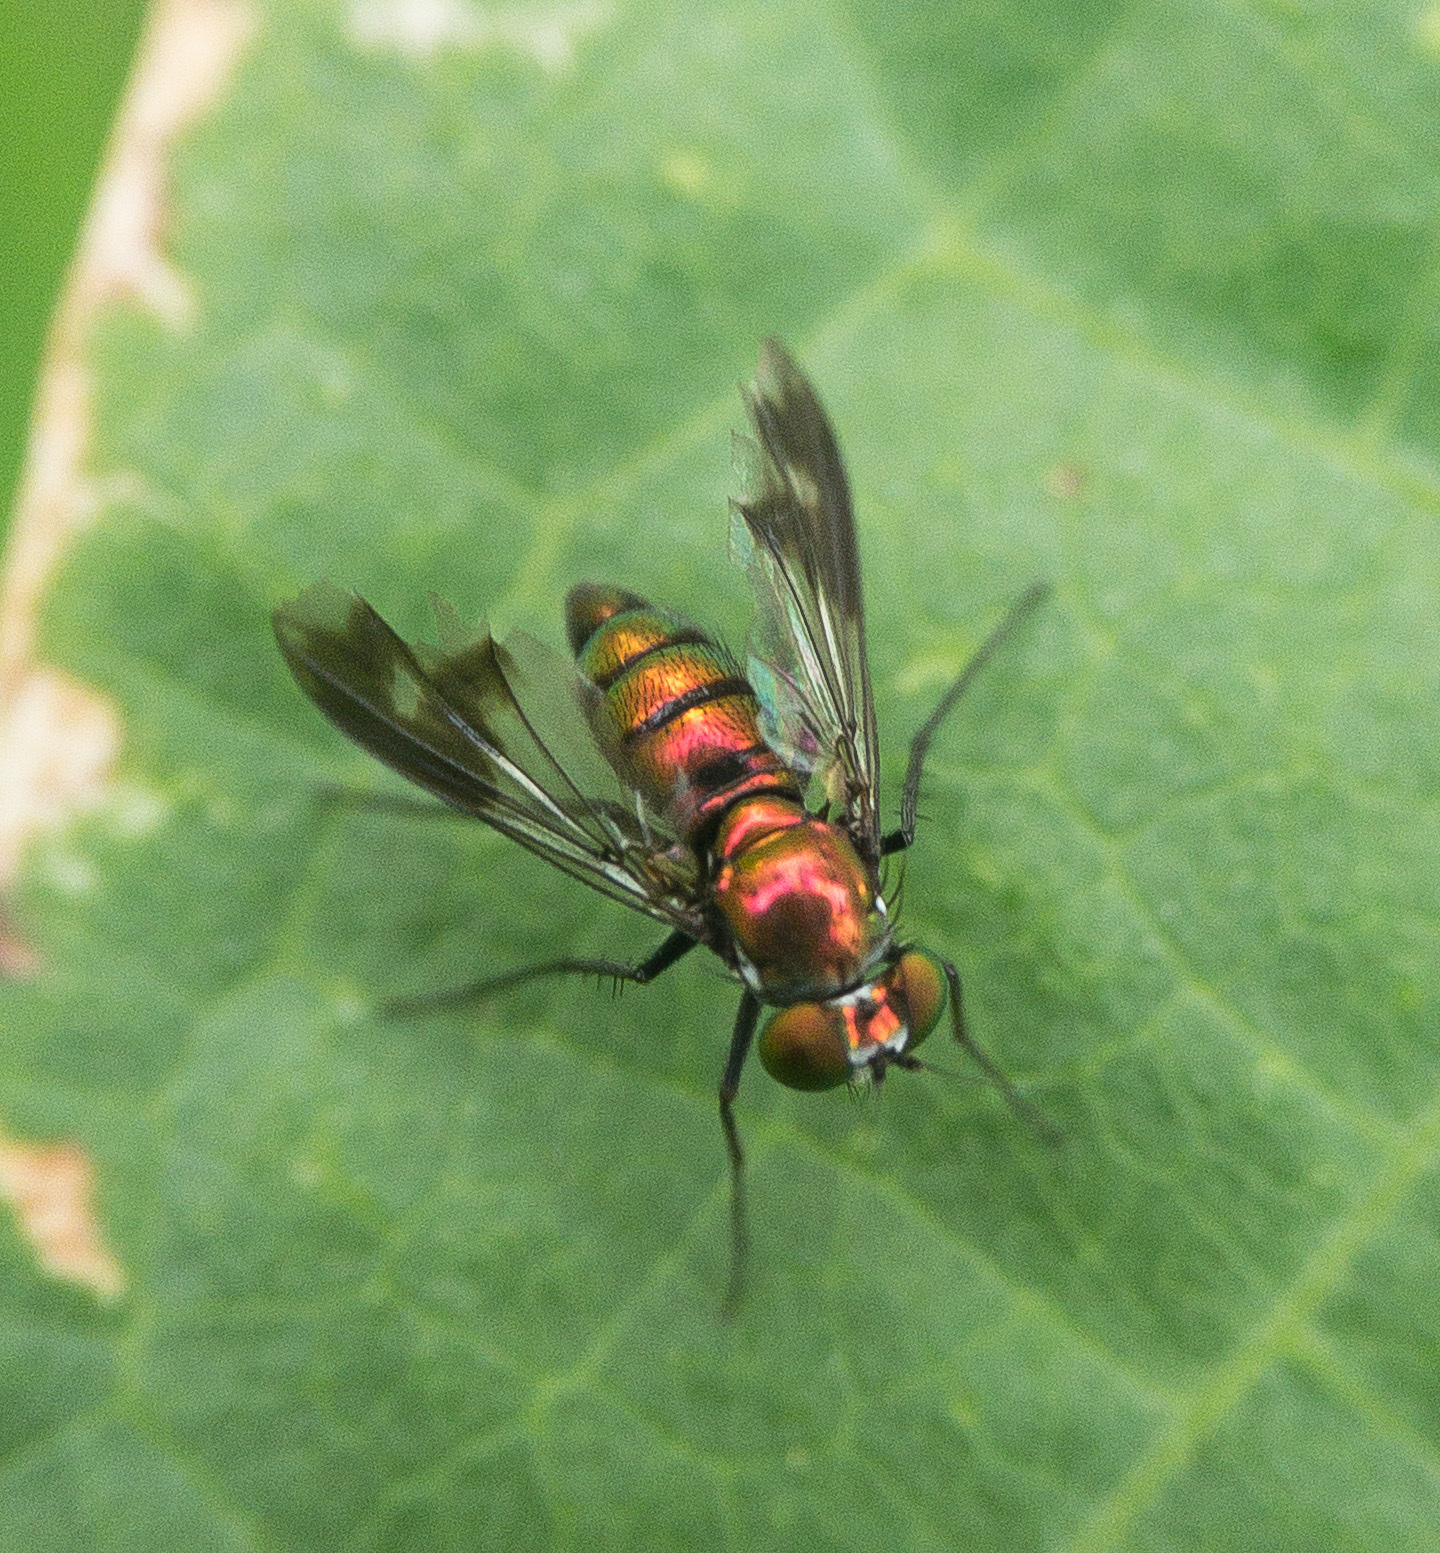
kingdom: Animalia
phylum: Arthropoda
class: Insecta
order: Diptera
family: Dolichopodidae
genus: Condylostylus
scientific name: Condylostylus patibulatus
